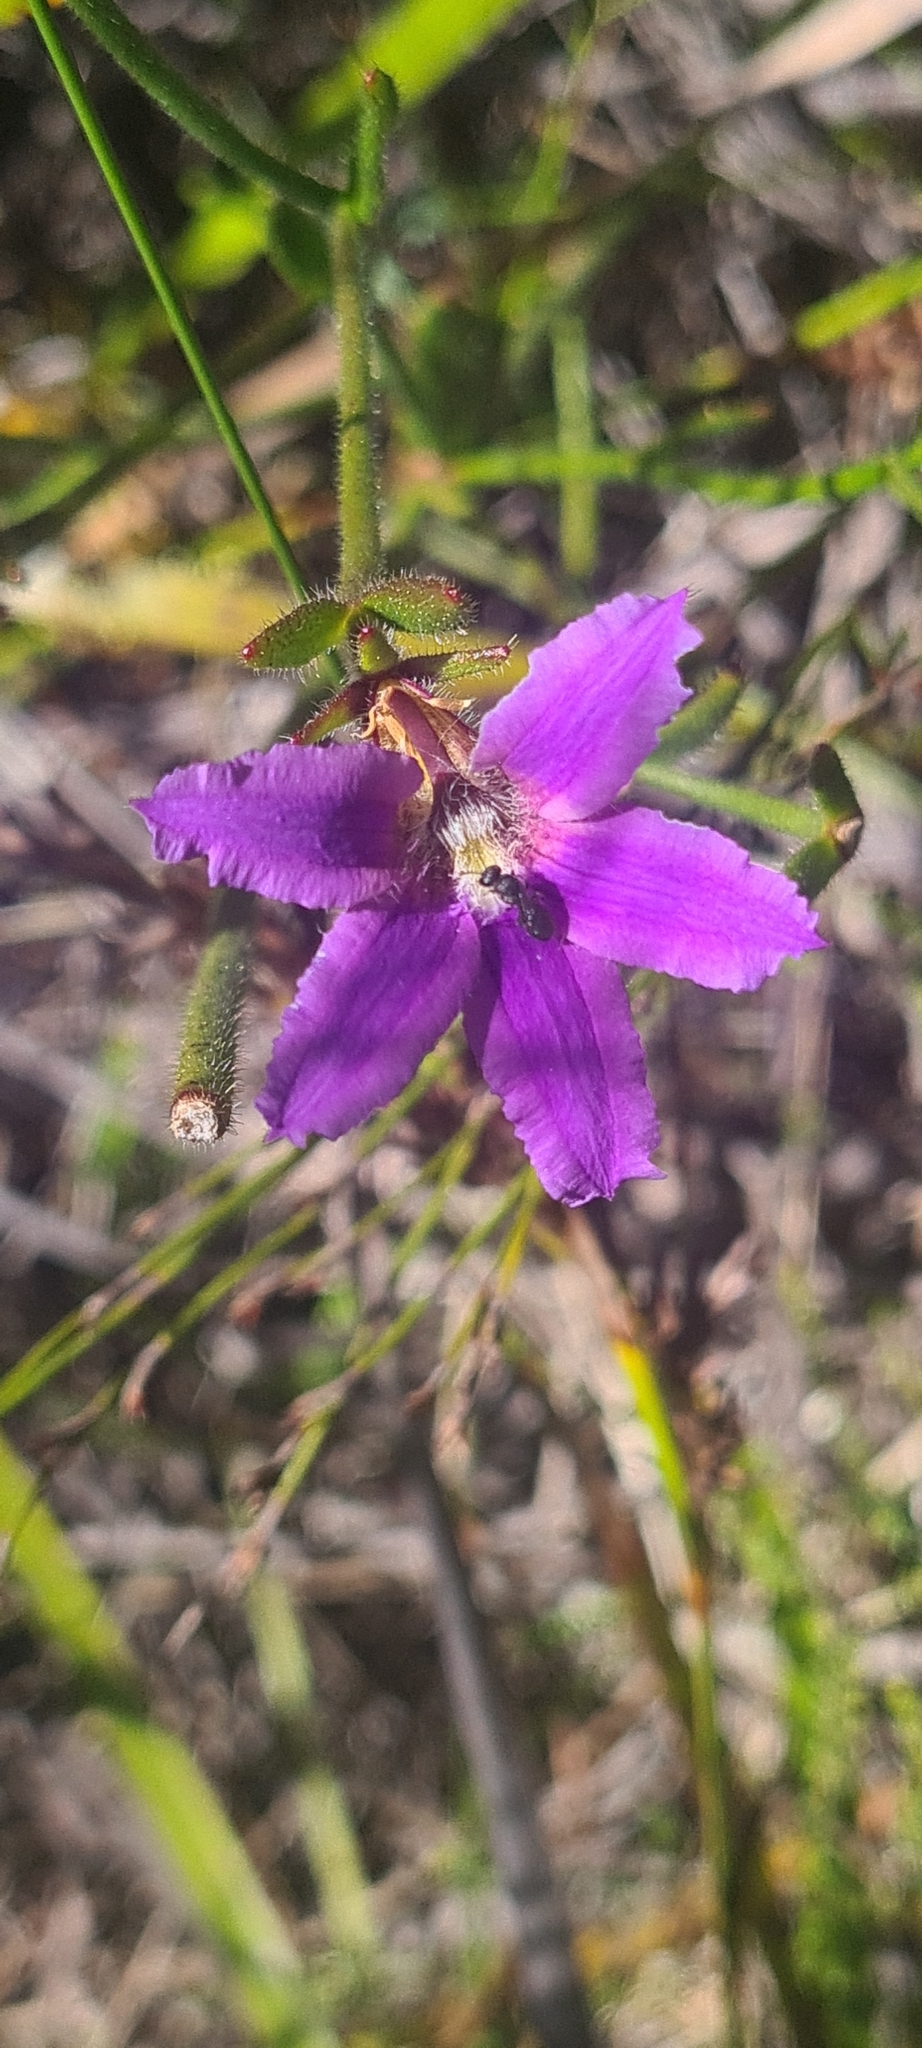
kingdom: Plantae
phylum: Tracheophyta
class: Magnoliopsida
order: Asterales
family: Goodeniaceae
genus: Scaevola
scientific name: Scaevola ramosissima
